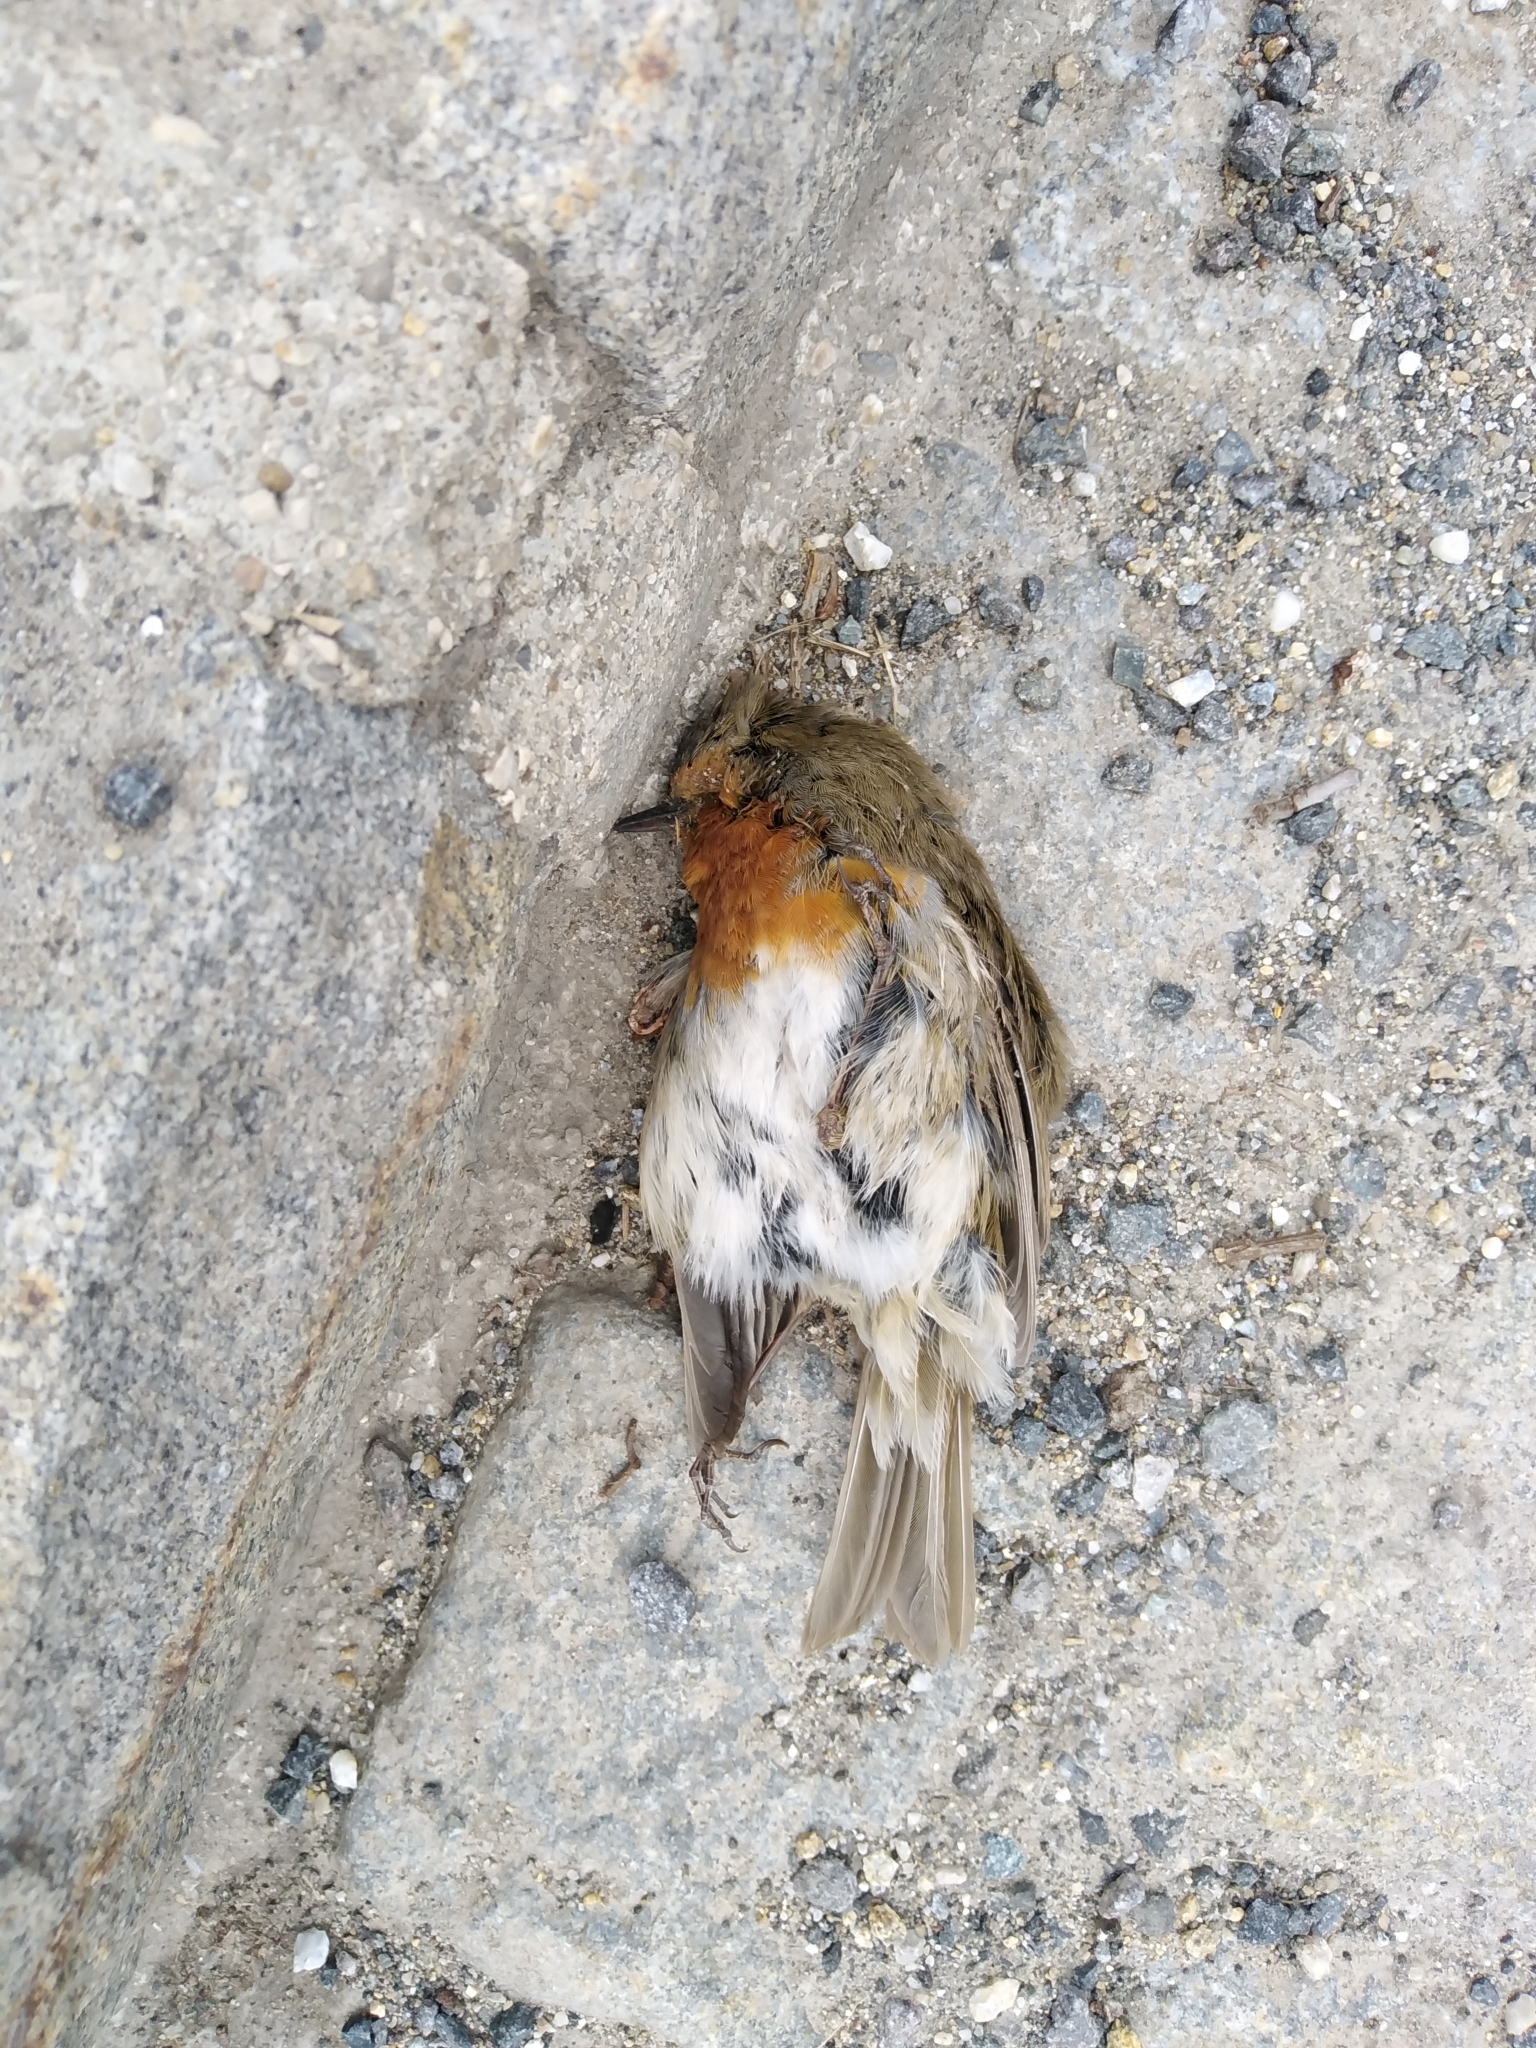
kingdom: Animalia
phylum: Chordata
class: Aves
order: Passeriformes
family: Muscicapidae
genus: Erithacus
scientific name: Erithacus rubecula
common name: European robin
